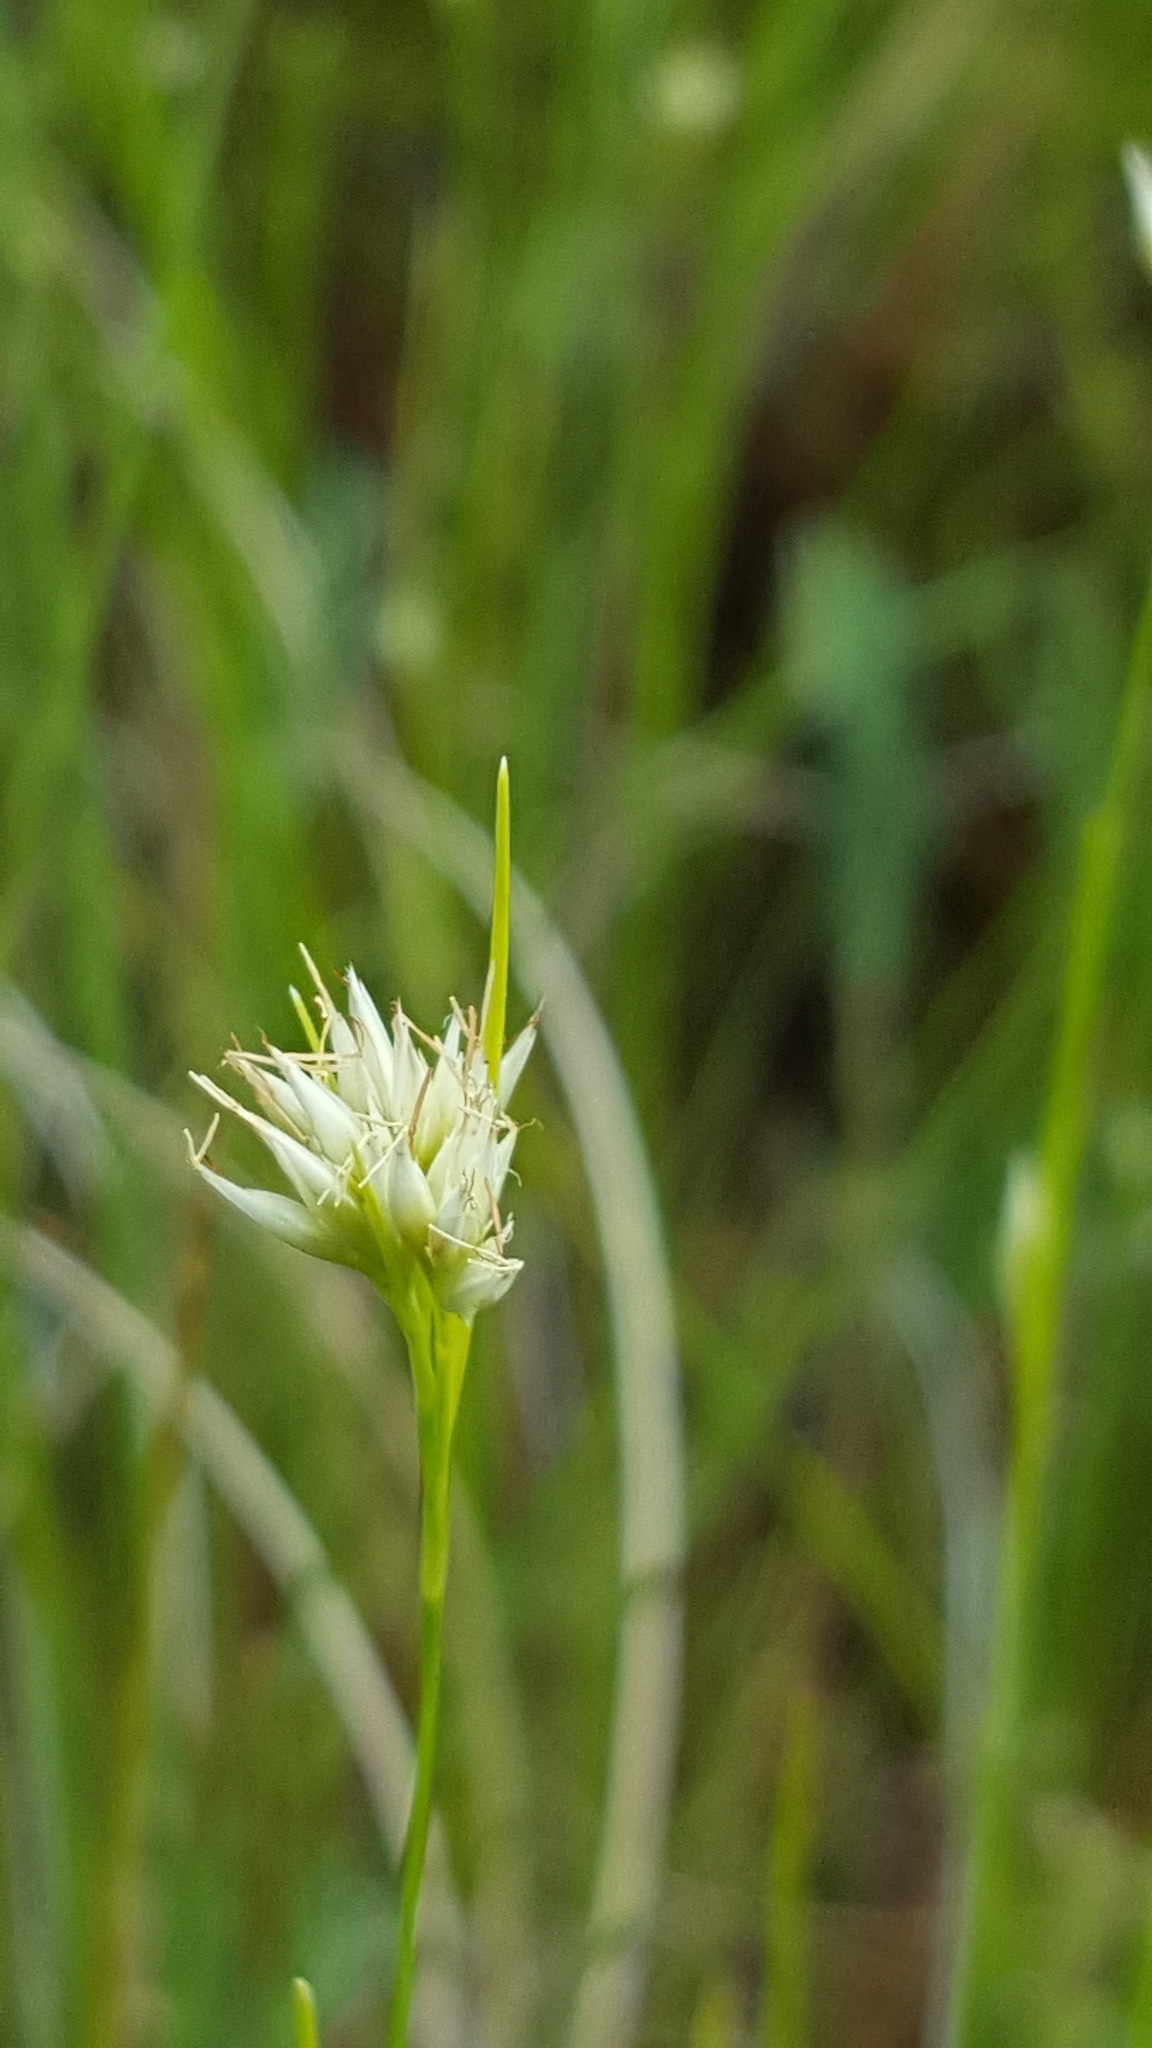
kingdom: Plantae
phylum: Tracheophyta
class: Liliopsida
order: Poales
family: Cyperaceae
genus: Rhynchospora
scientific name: Rhynchospora alba
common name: White beak-sedge
